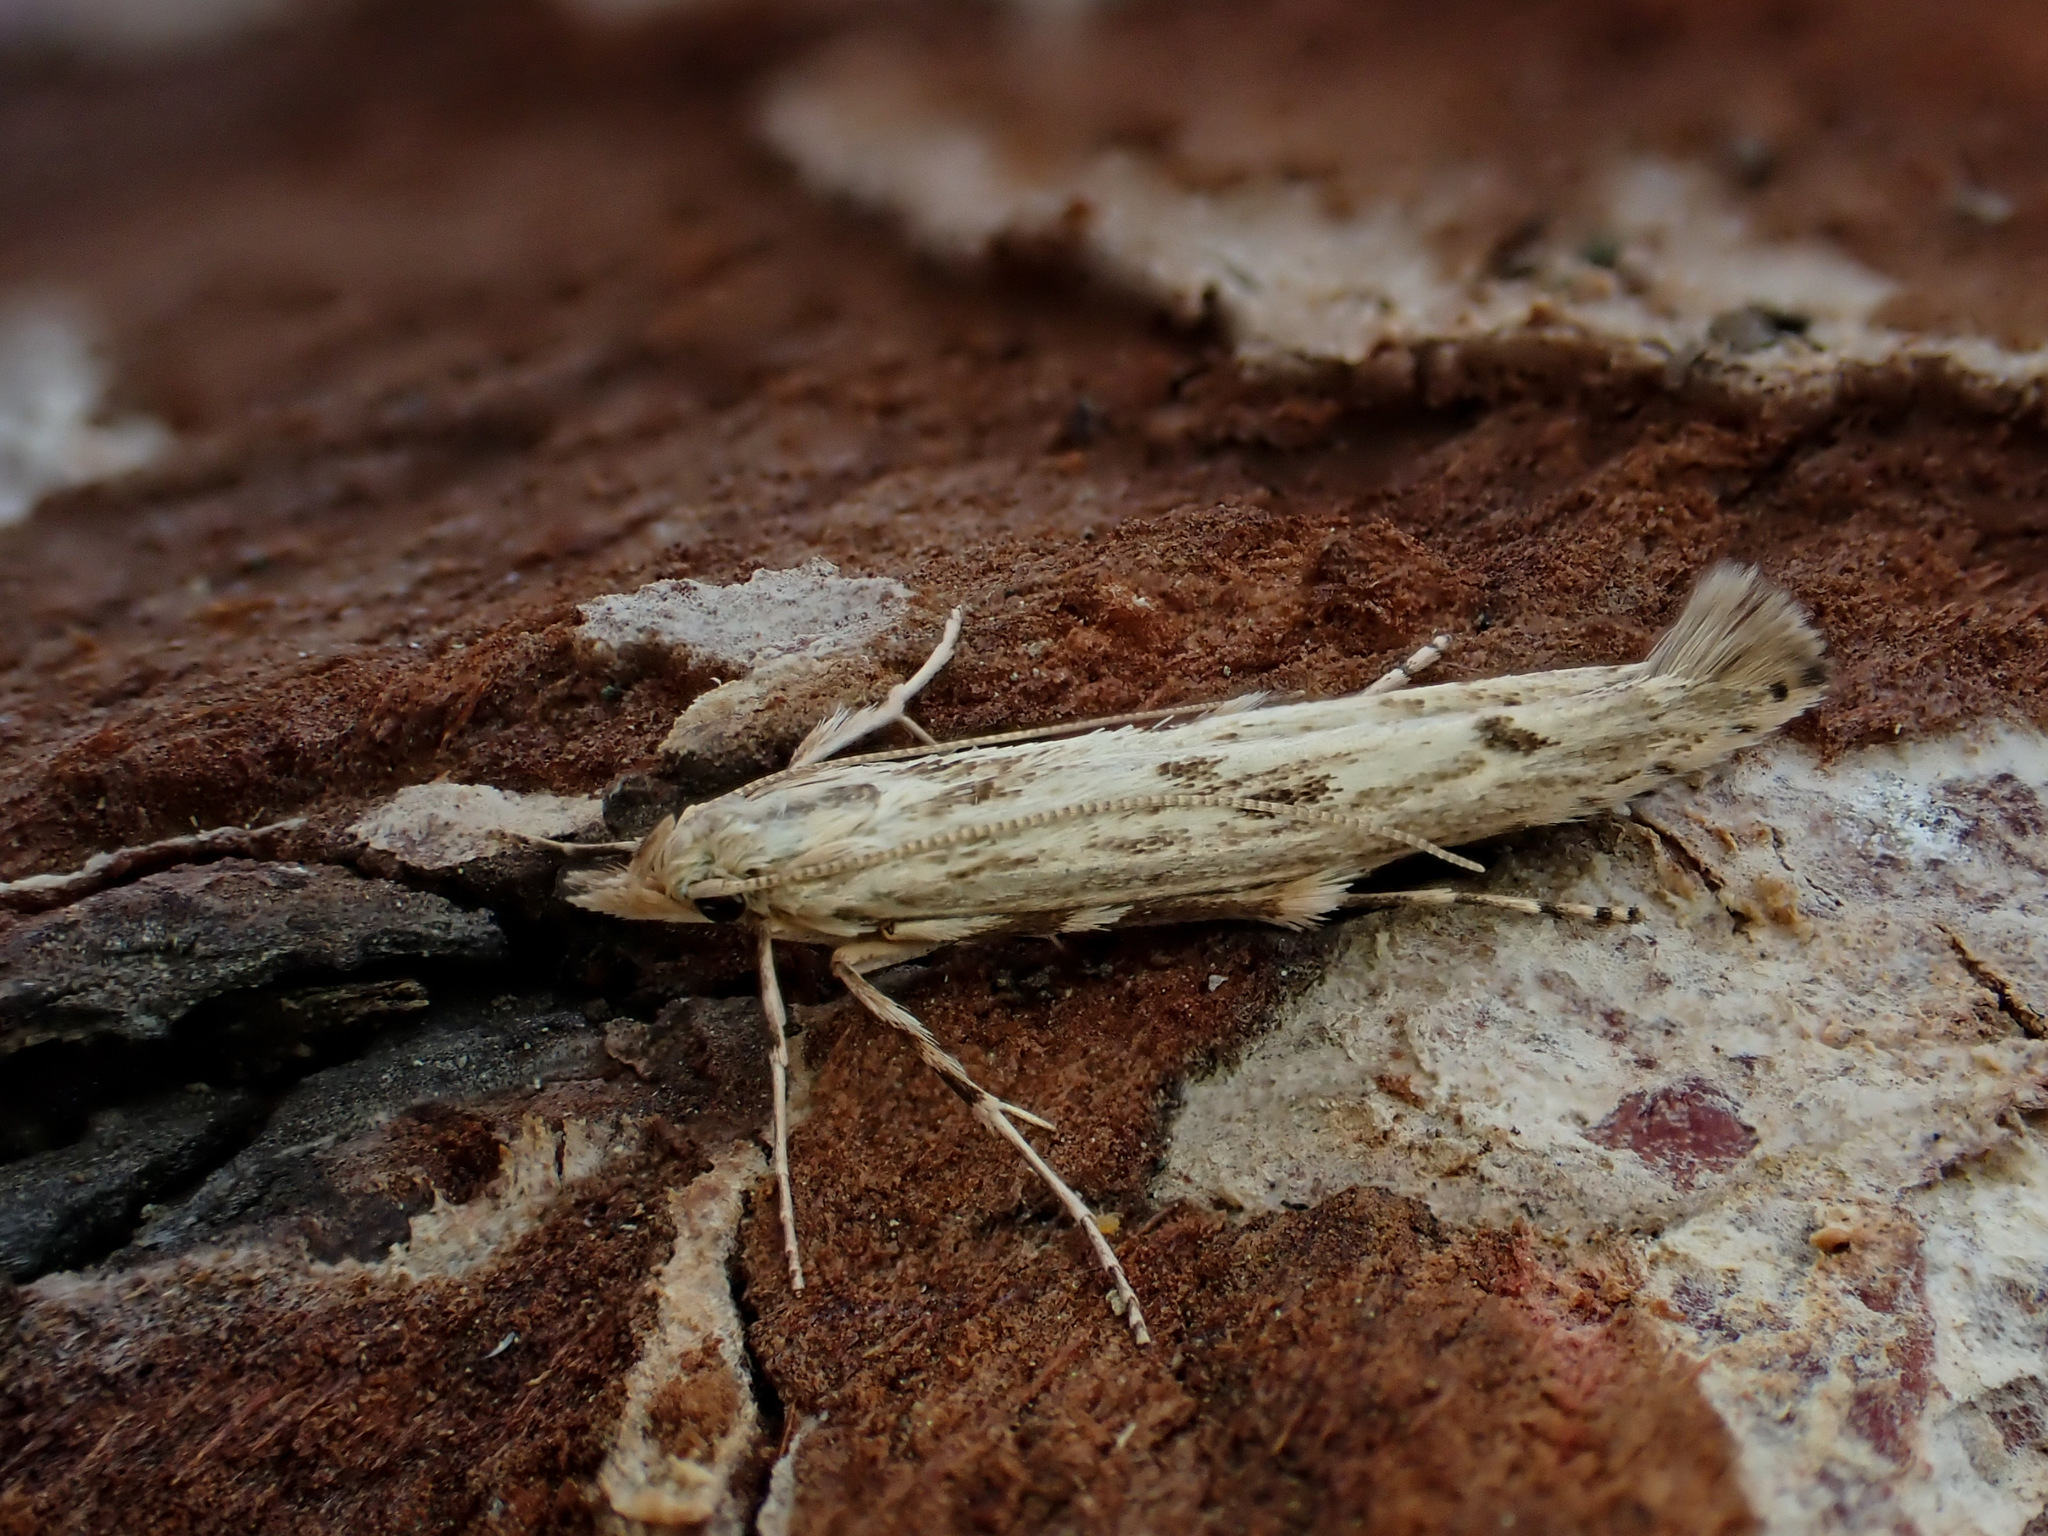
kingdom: Animalia
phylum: Arthropoda
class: Insecta
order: Lepidoptera
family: Batrachedridae
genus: Batrachedra
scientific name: Batrachedra eucola
